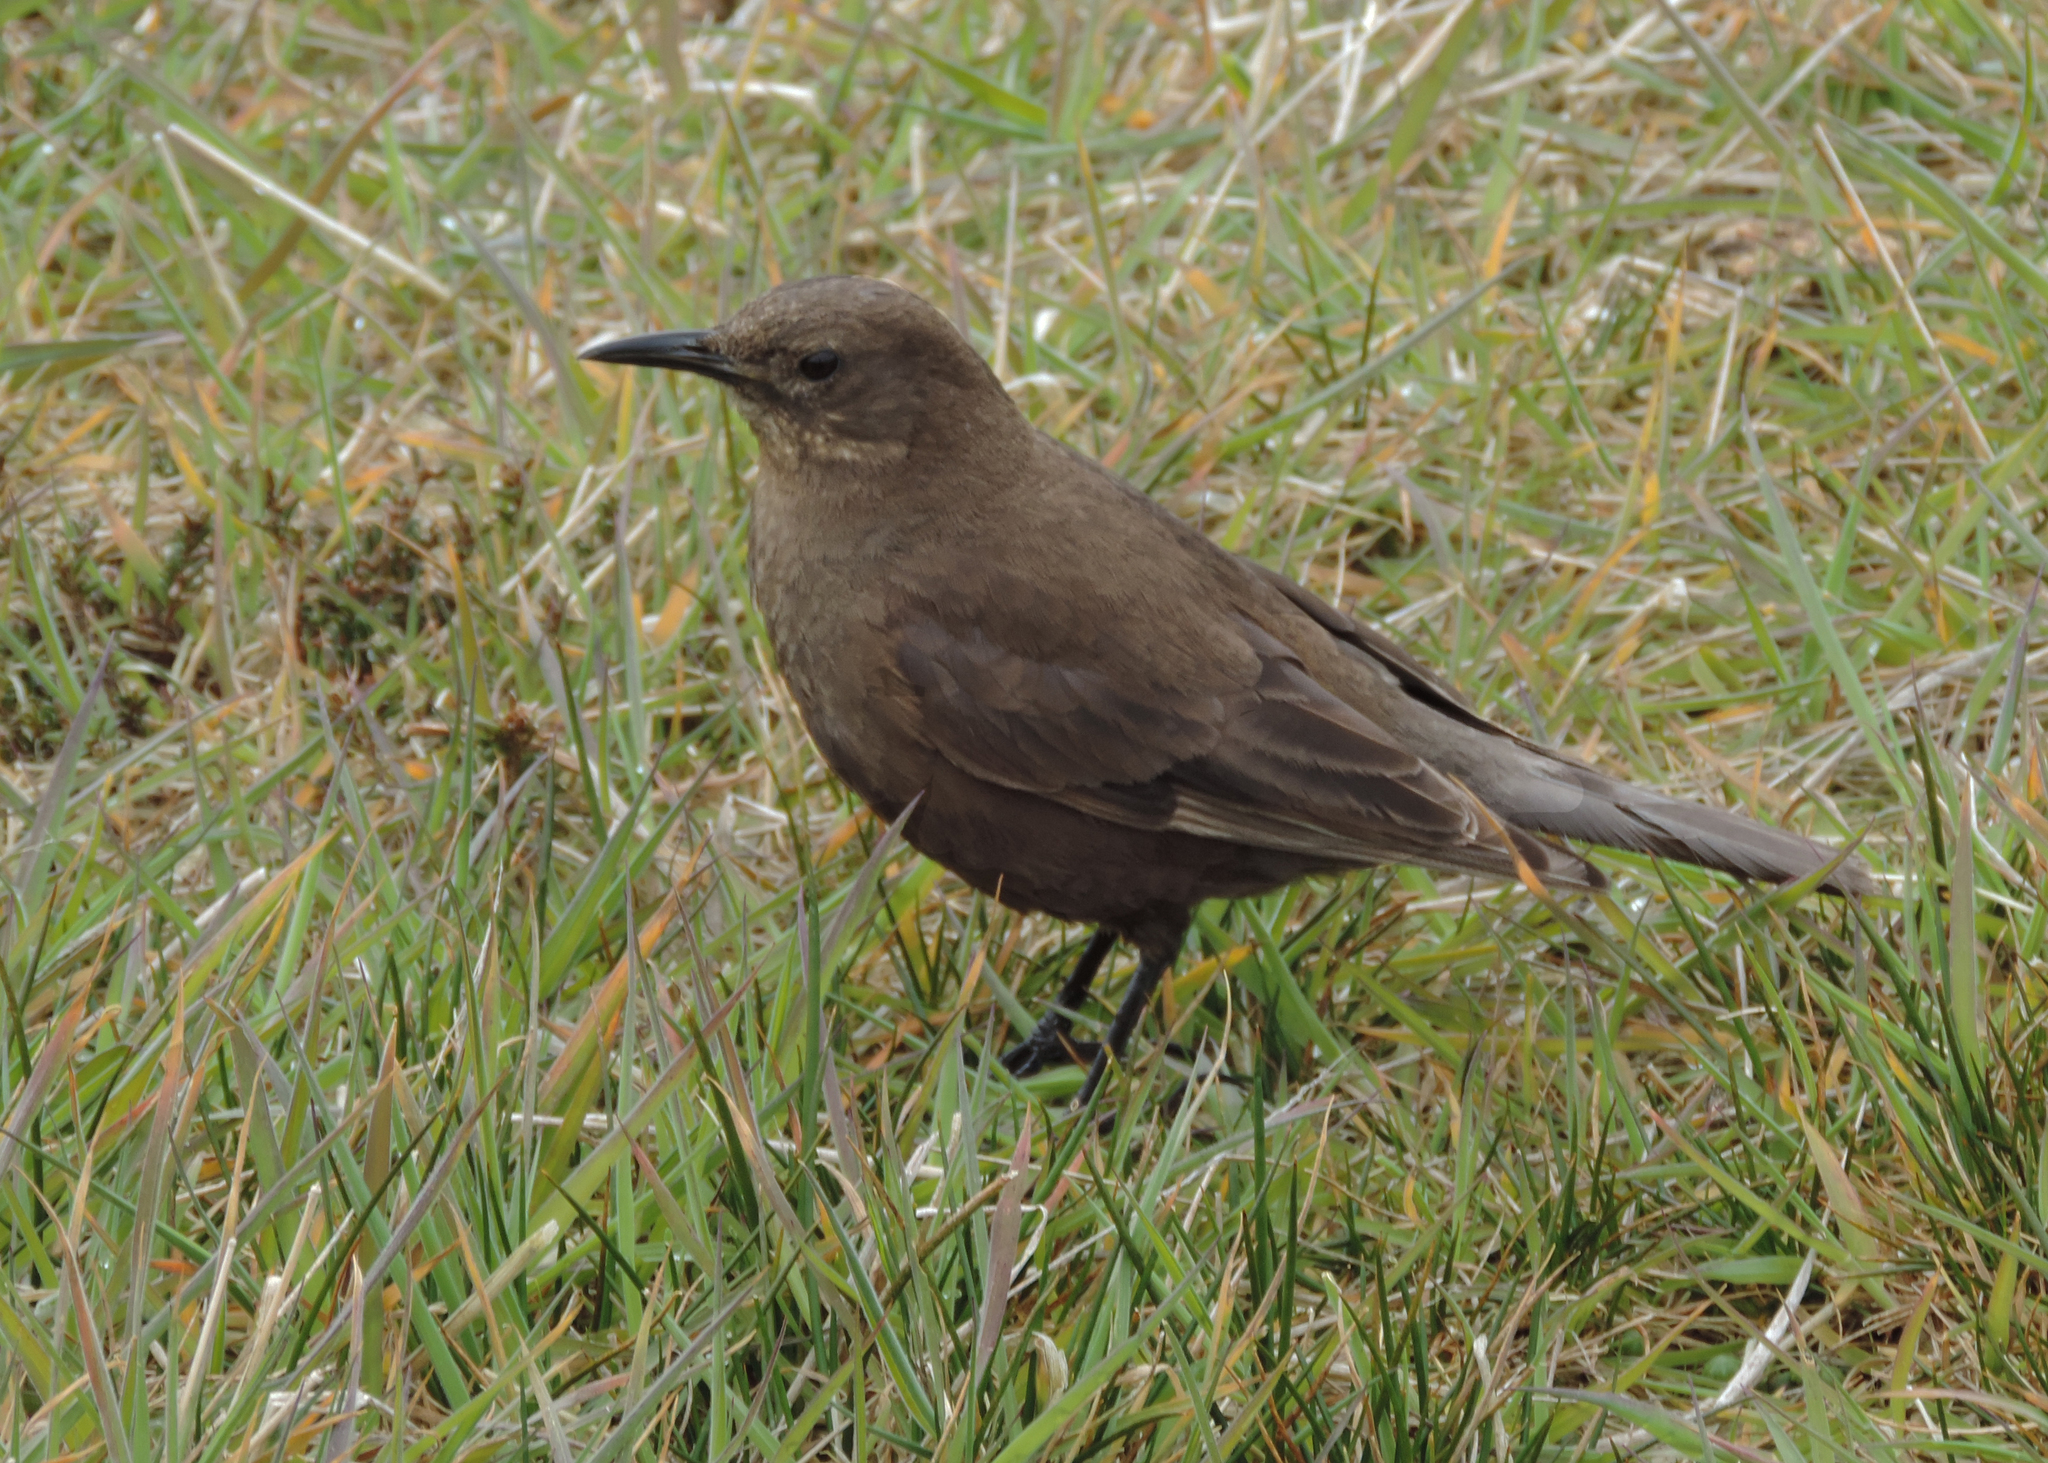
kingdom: Animalia
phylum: Chordata
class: Aves
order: Passeriformes
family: Furnariidae
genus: Cinclodes
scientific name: Cinclodes antarcticus
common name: Blackish cinclodes
